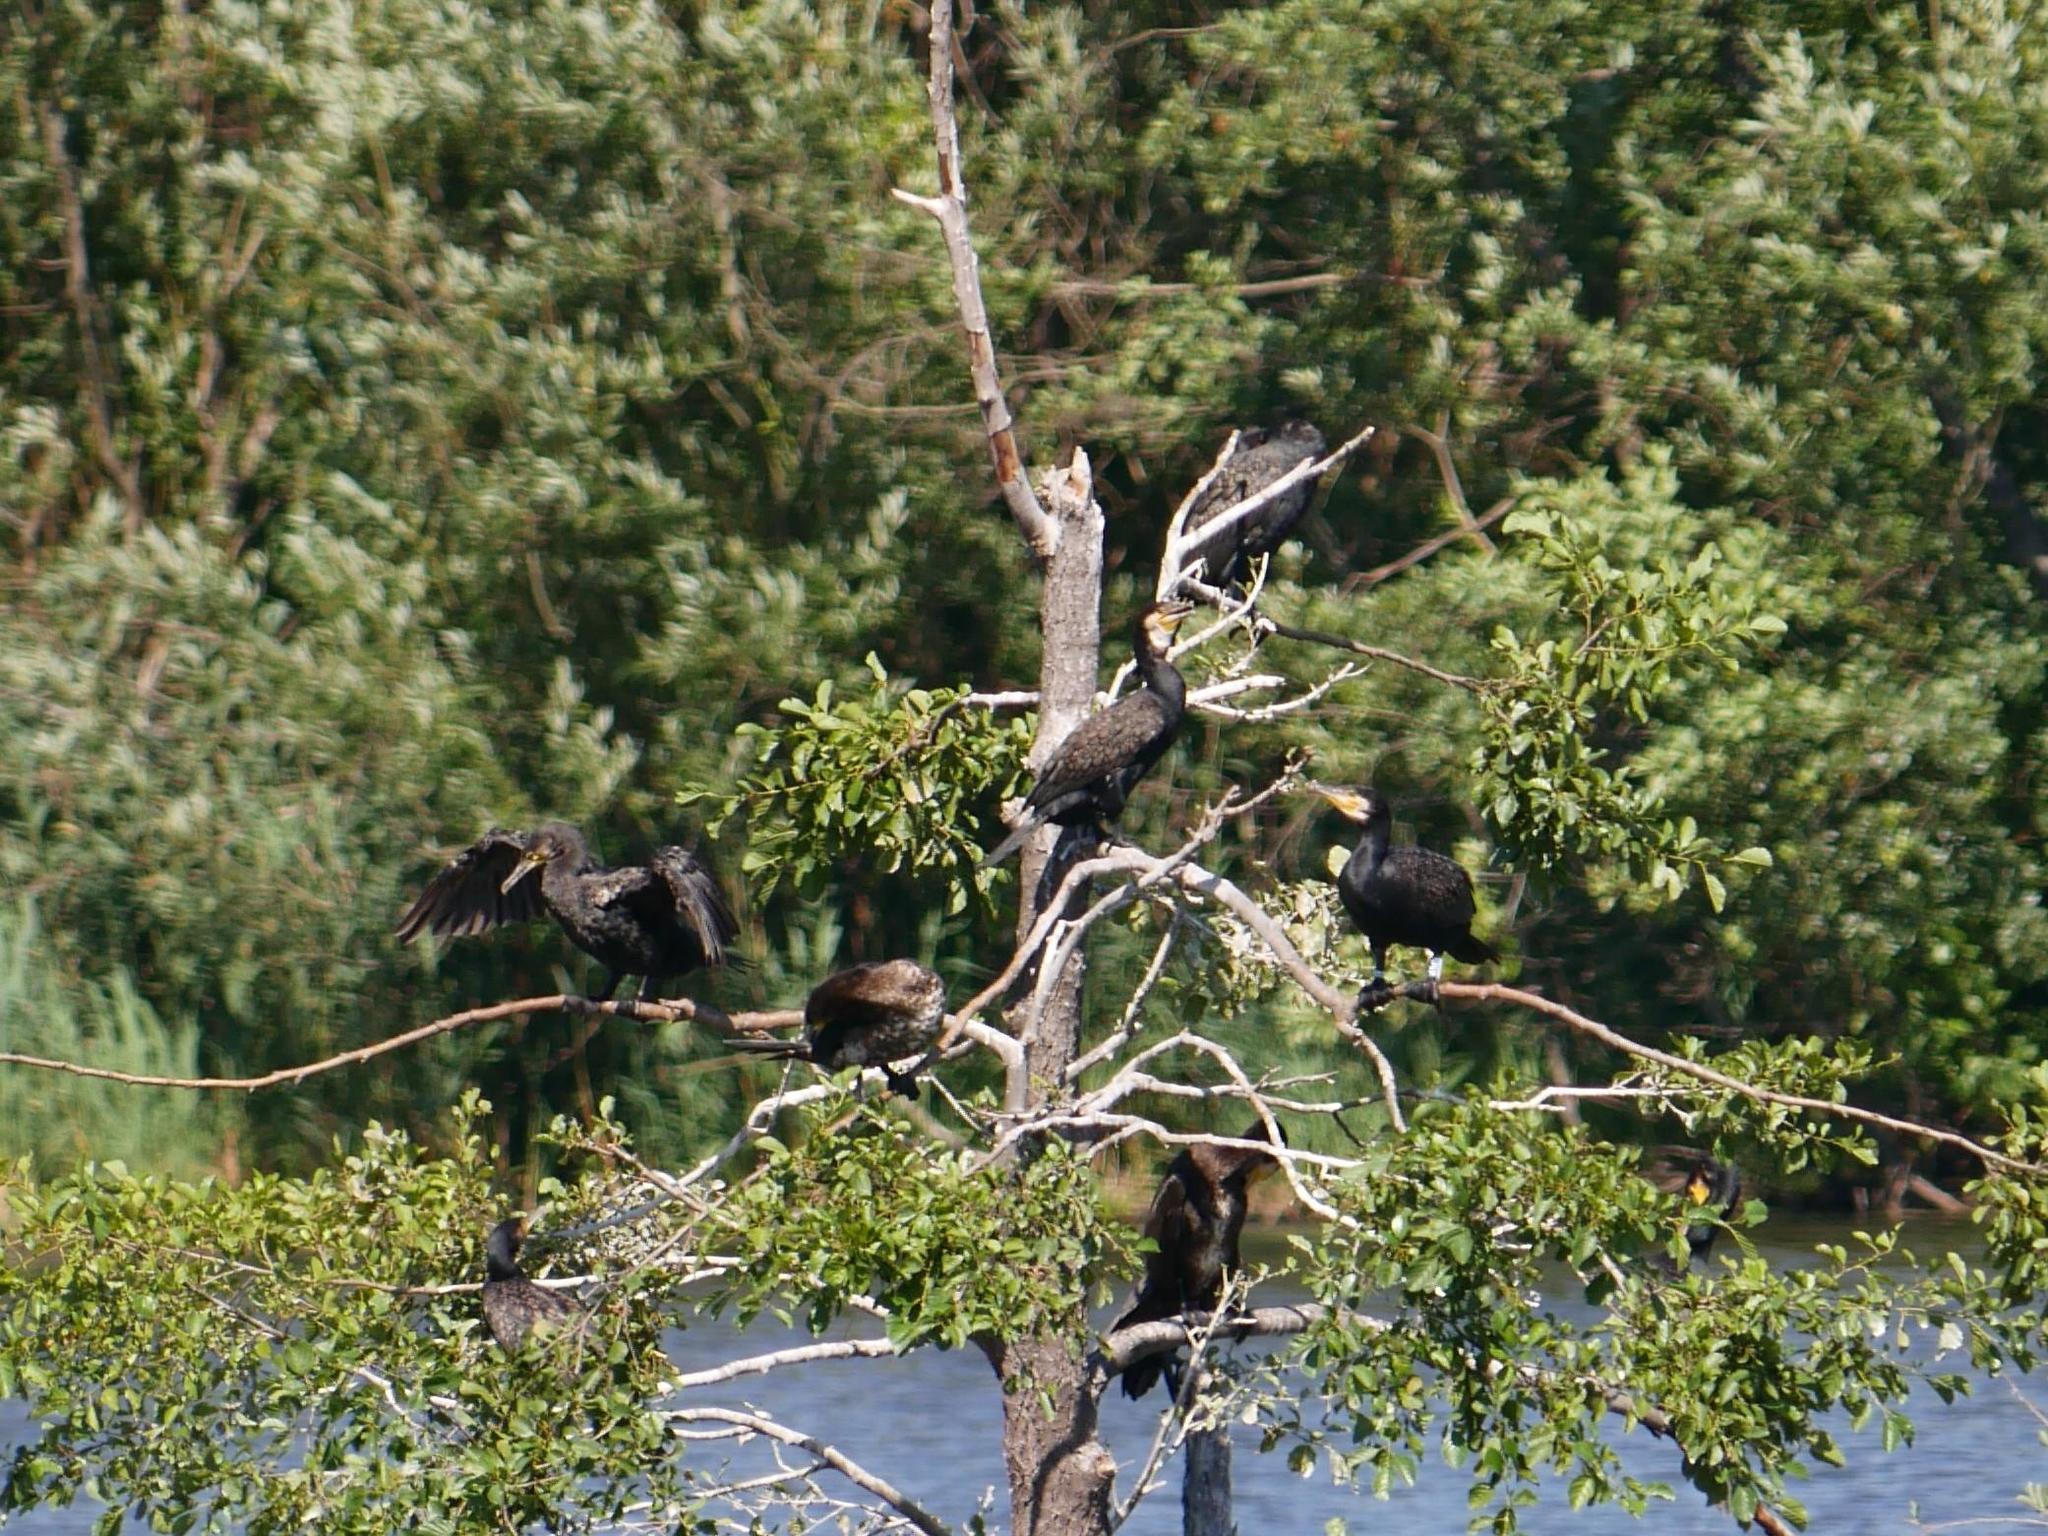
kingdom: Animalia
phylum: Chordata
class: Aves
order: Suliformes
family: Phalacrocoracidae
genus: Phalacrocorax
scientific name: Phalacrocorax carbo
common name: Great cormorant
